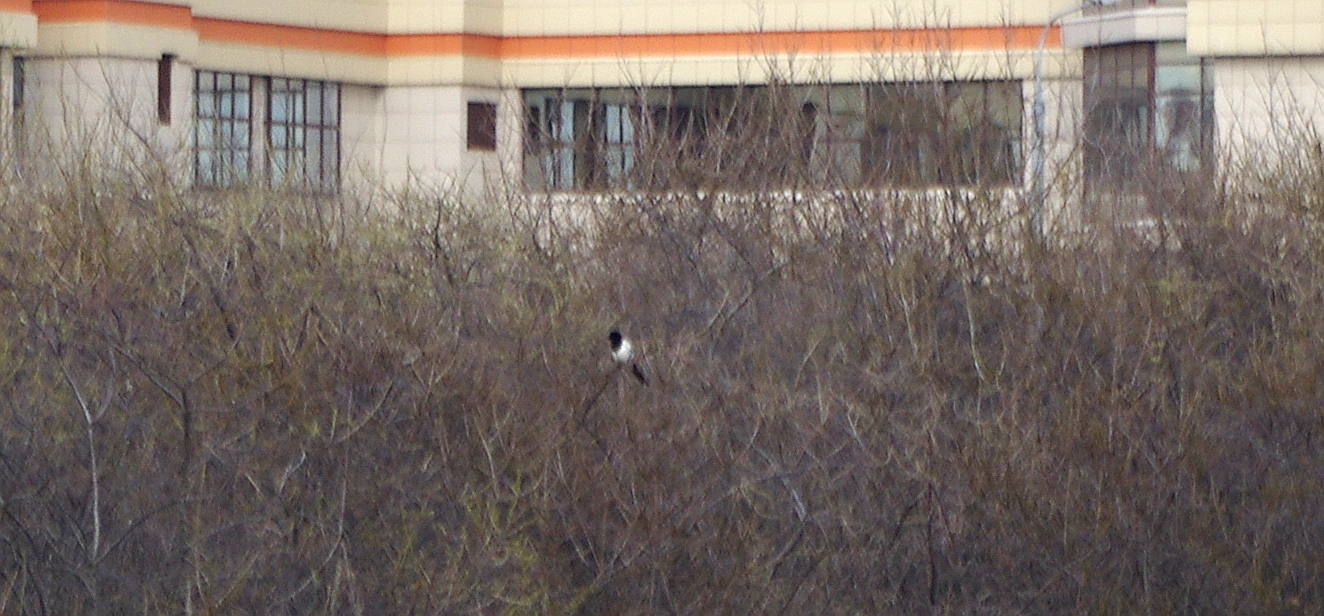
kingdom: Animalia
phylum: Chordata
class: Aves
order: Passeriformes
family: Corvidae
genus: Pica
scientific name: Pica pica
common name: Eurasian magpie
